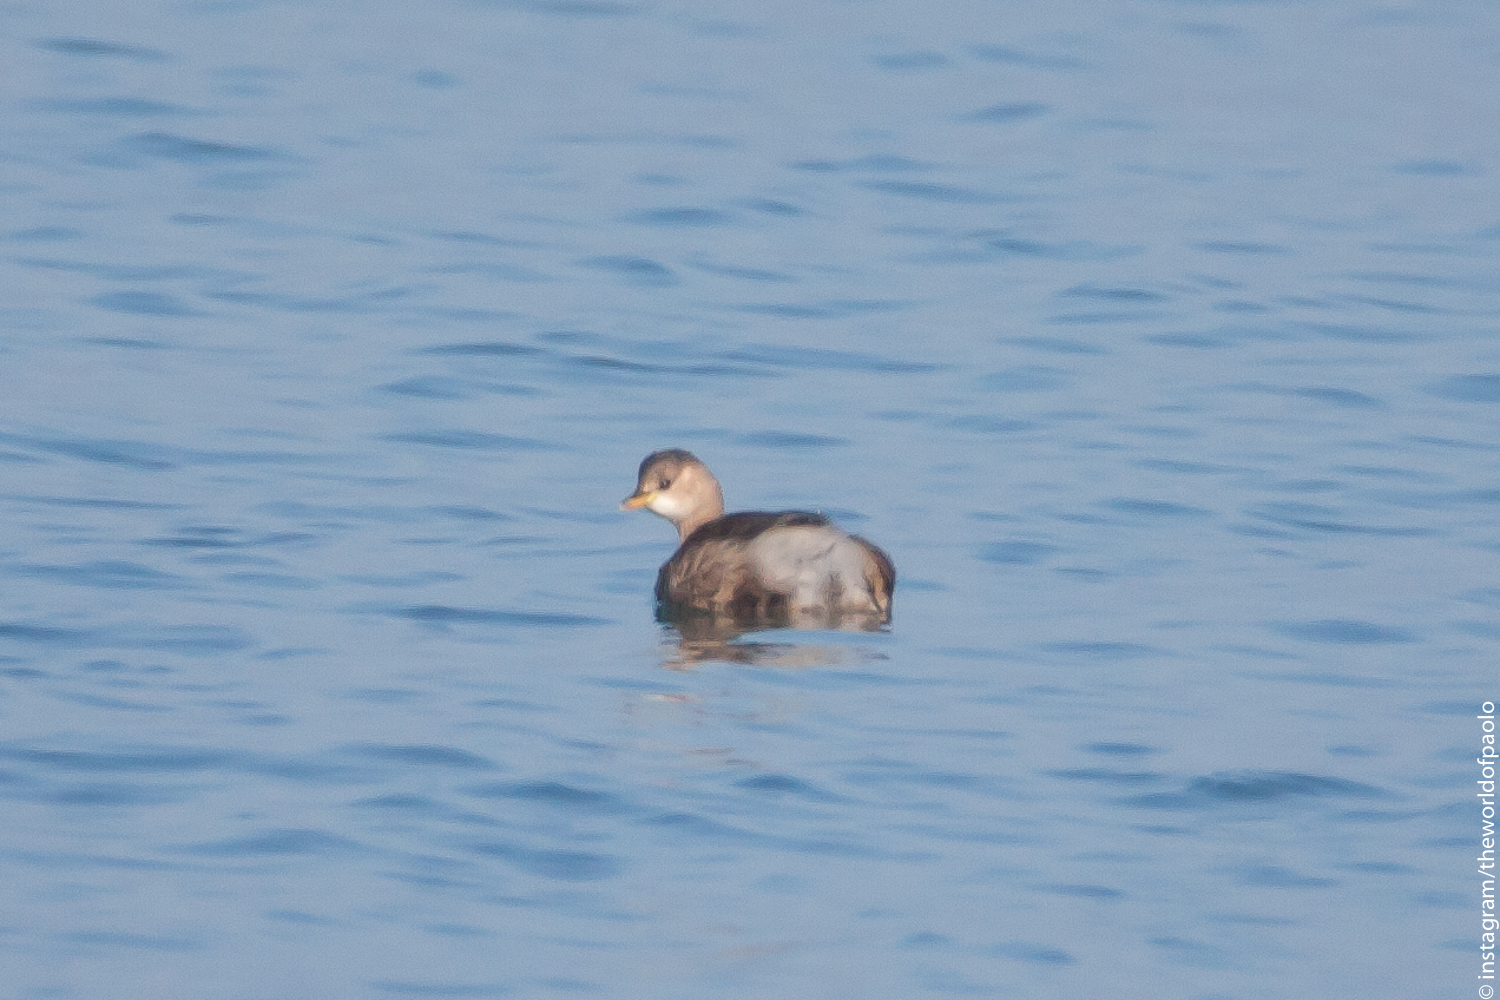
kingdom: Animalia
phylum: Chordata
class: Aves
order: Podicipediformes
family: Podicipedidae
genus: Tachybaptus
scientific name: Tachybaptus ruficollis
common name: Little grebe
